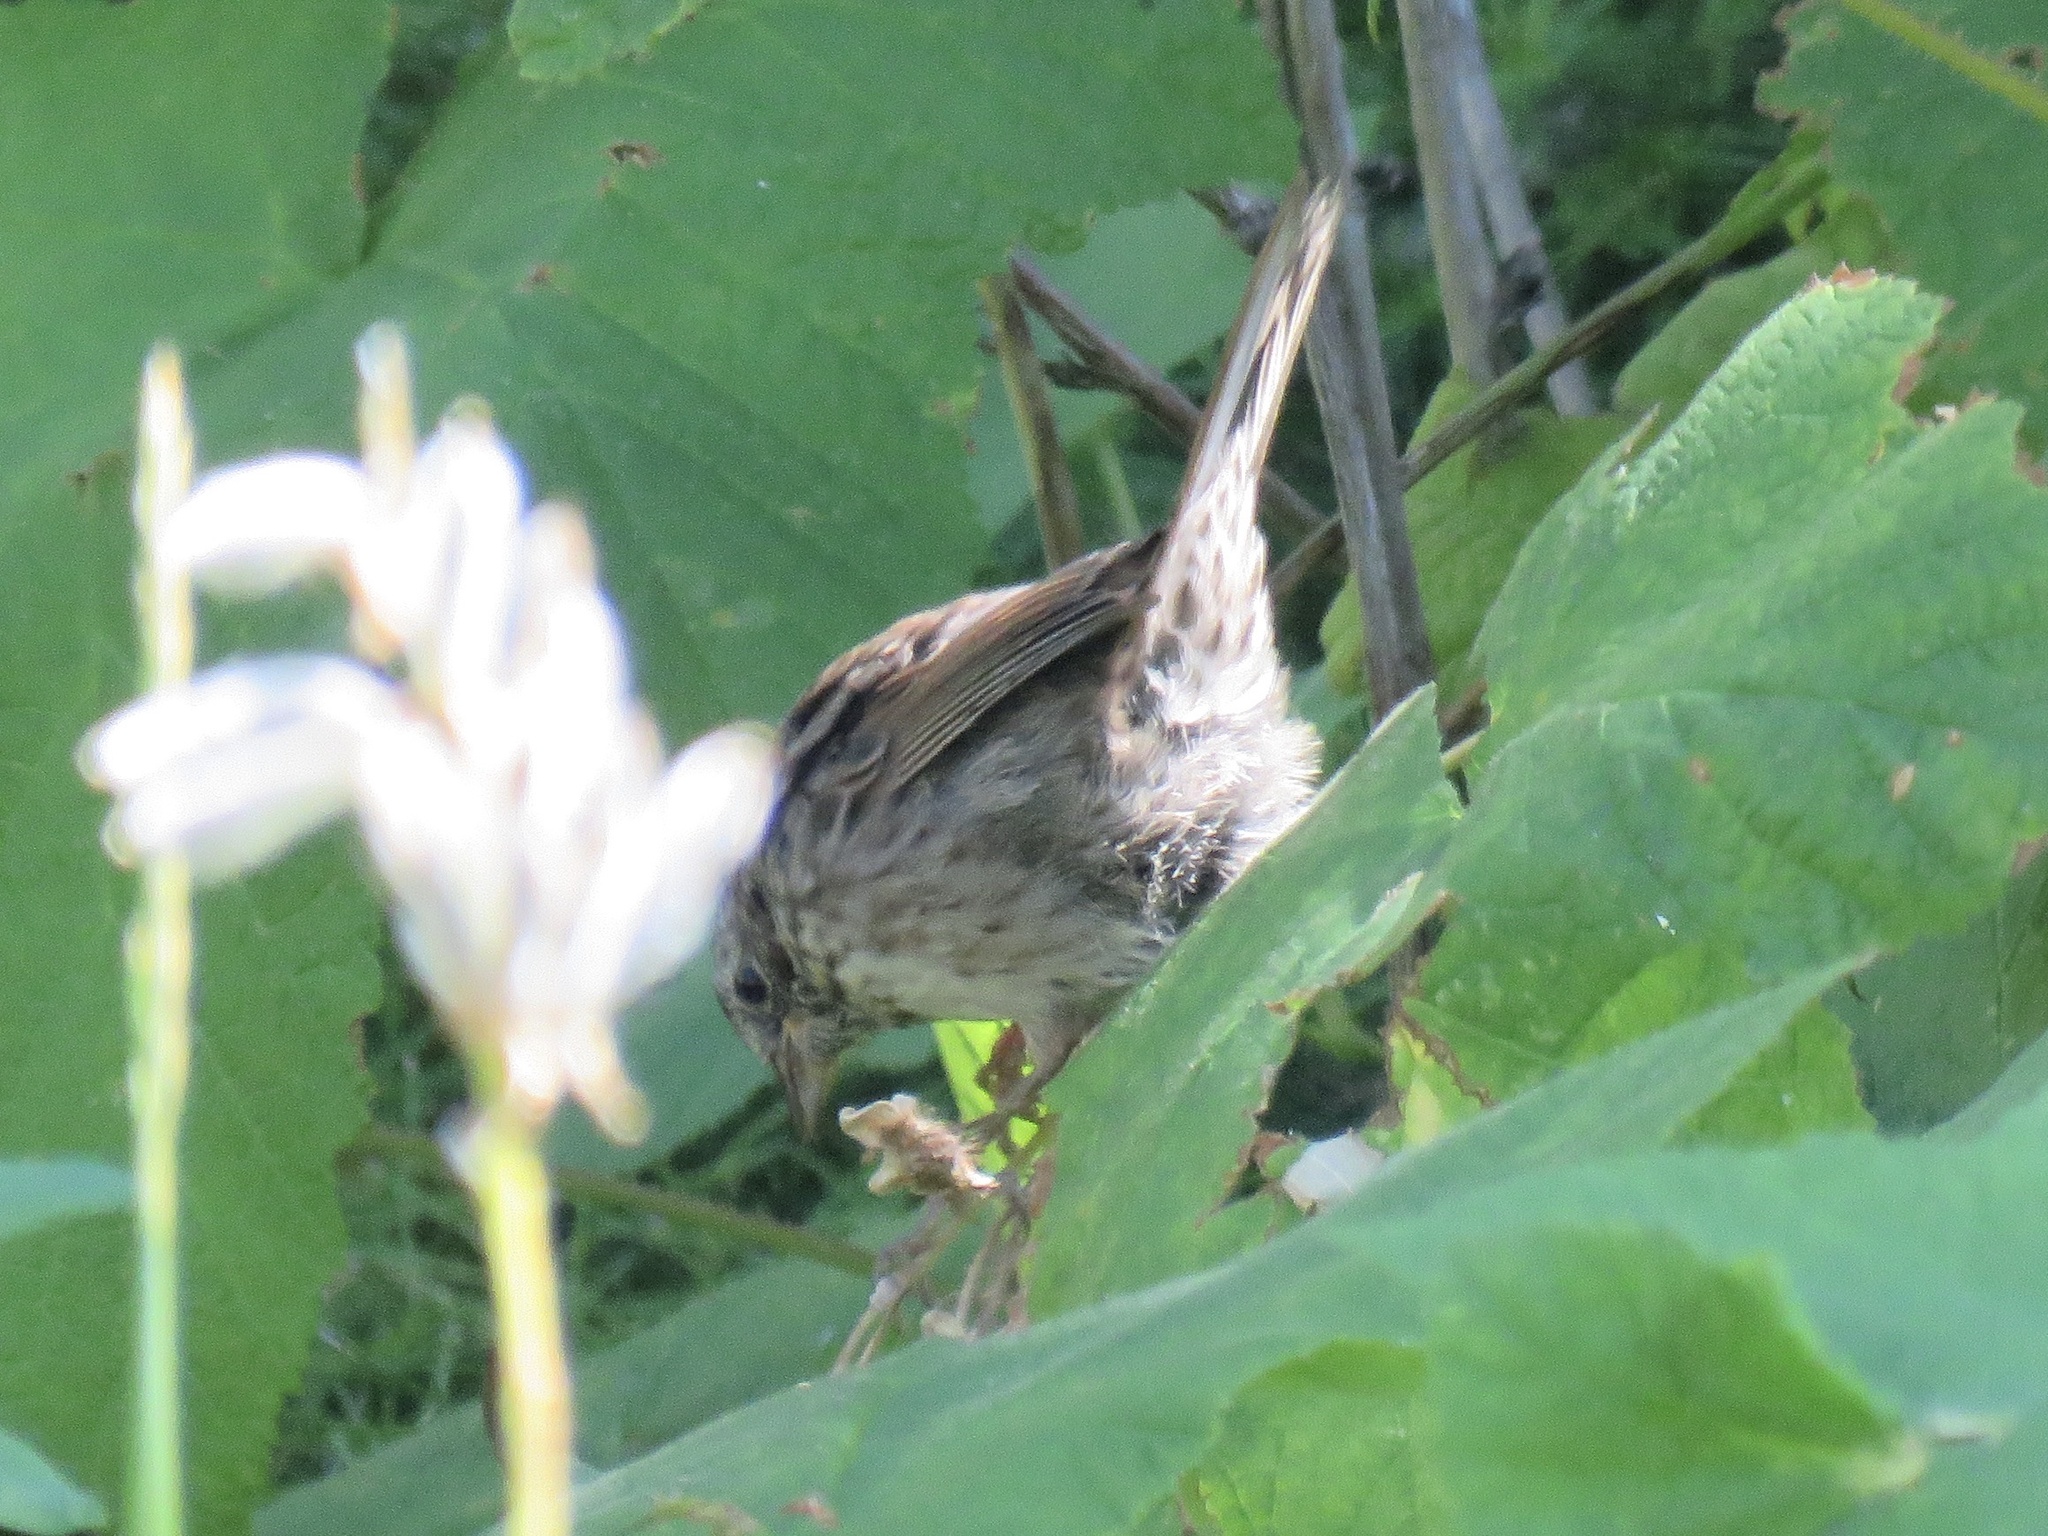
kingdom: Animalia
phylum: Chordata
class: Aves
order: Passeriformes
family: Passerellidae
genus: Melospiza
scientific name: Melospiza melodia
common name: Song sparrow
